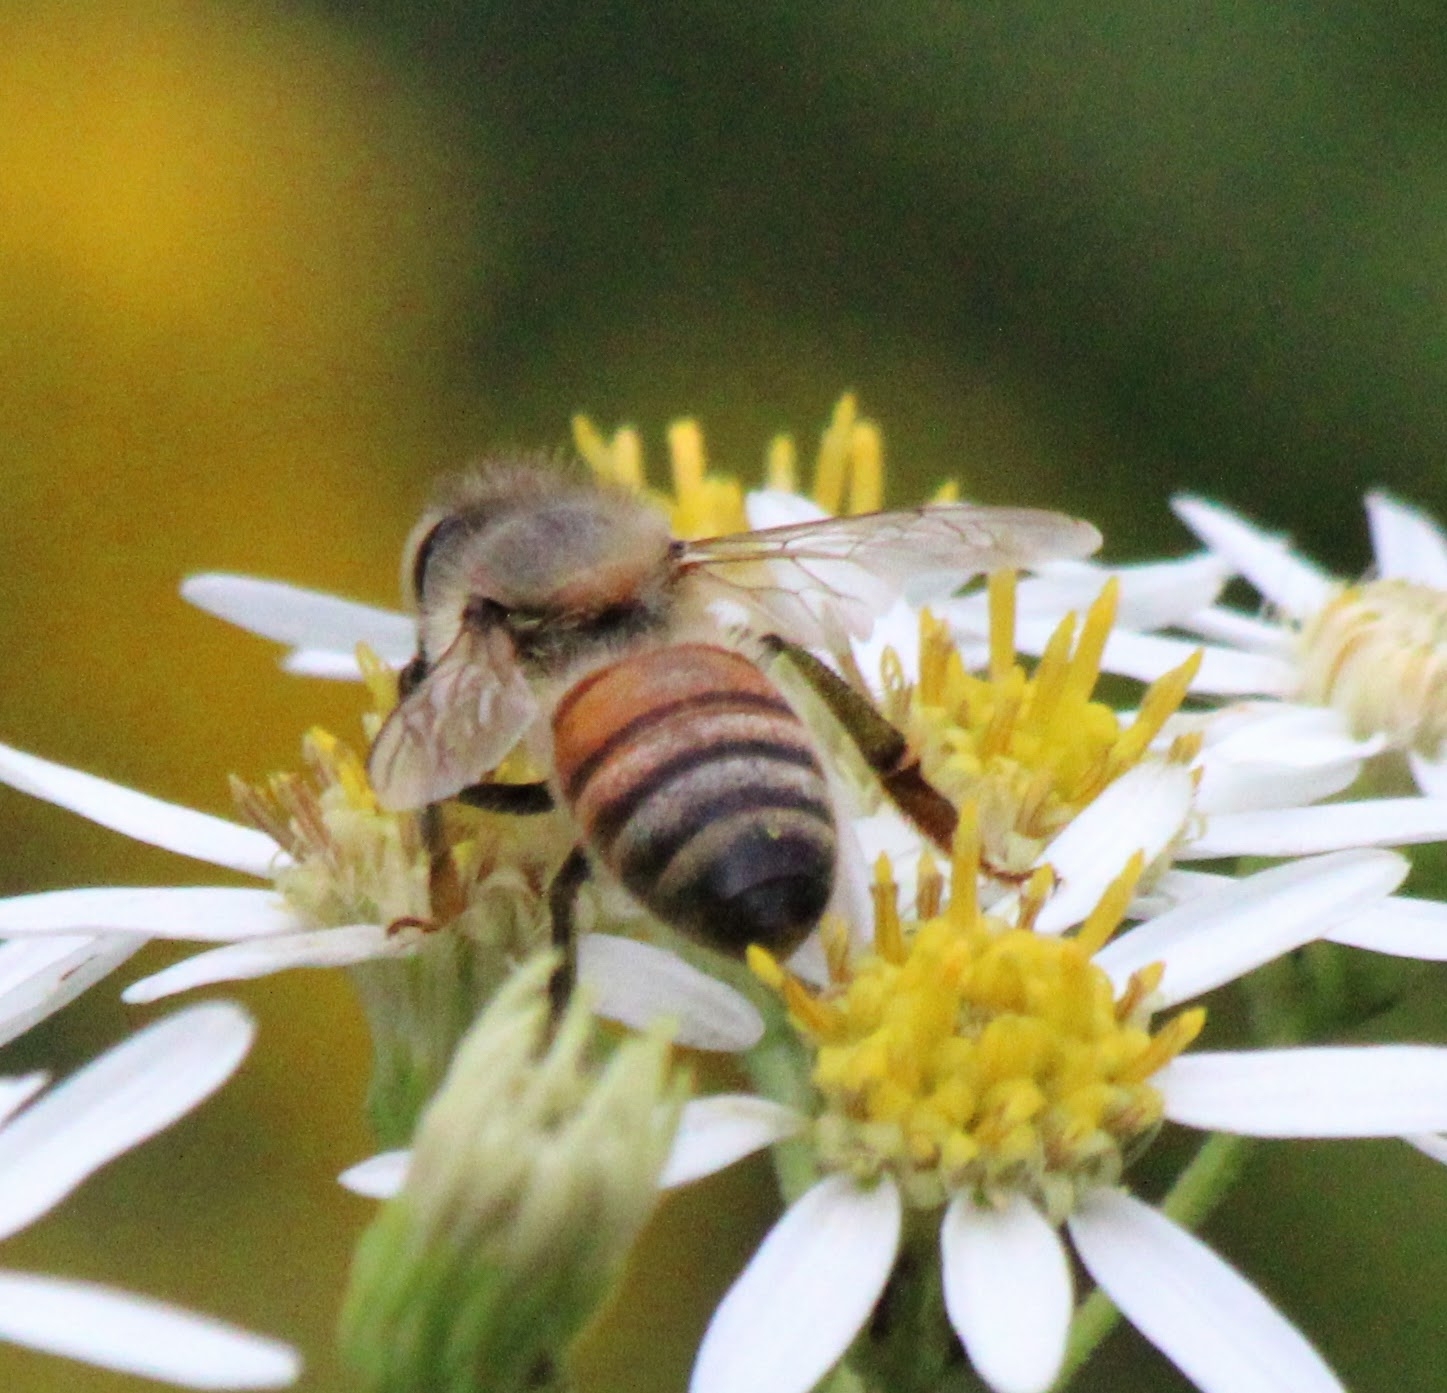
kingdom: Animalia
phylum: Arthropoda
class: Insecta
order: Hymenoptera
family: Apidae
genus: Apis
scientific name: Apis mellifera
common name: Honey bee
